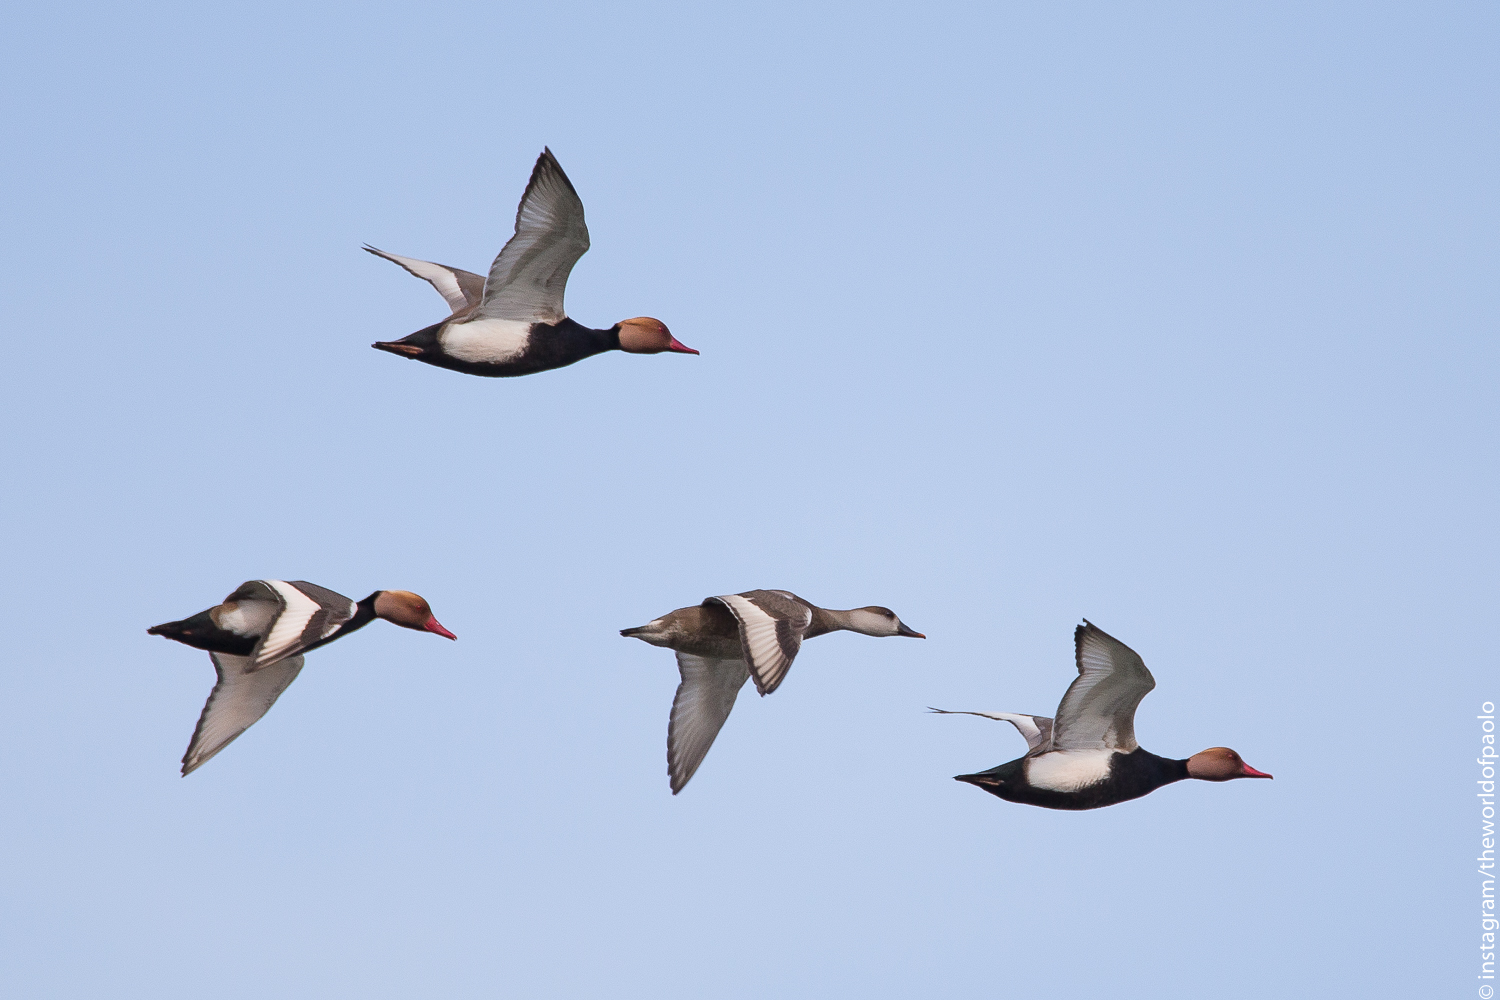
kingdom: Animalia
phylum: Chordata
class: Aves
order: Anseriformes
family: Anatidae
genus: Netta
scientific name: Netta rufina
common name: Red-crested pochard
